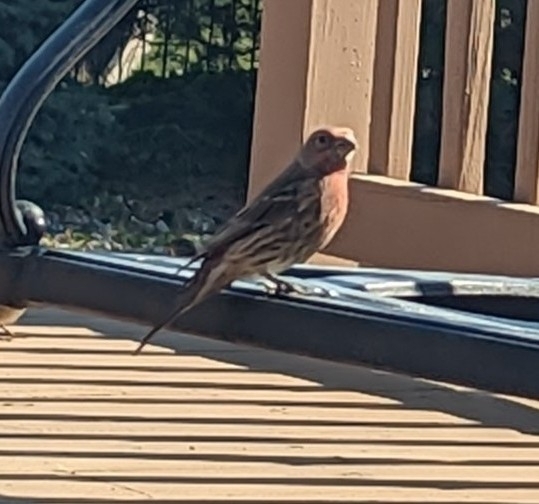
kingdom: Animalia
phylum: Chordata
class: Aves
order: Passeriformes
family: Fringillidae
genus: Haemorhous
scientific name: Haemorhous mexicanus
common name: House finch
